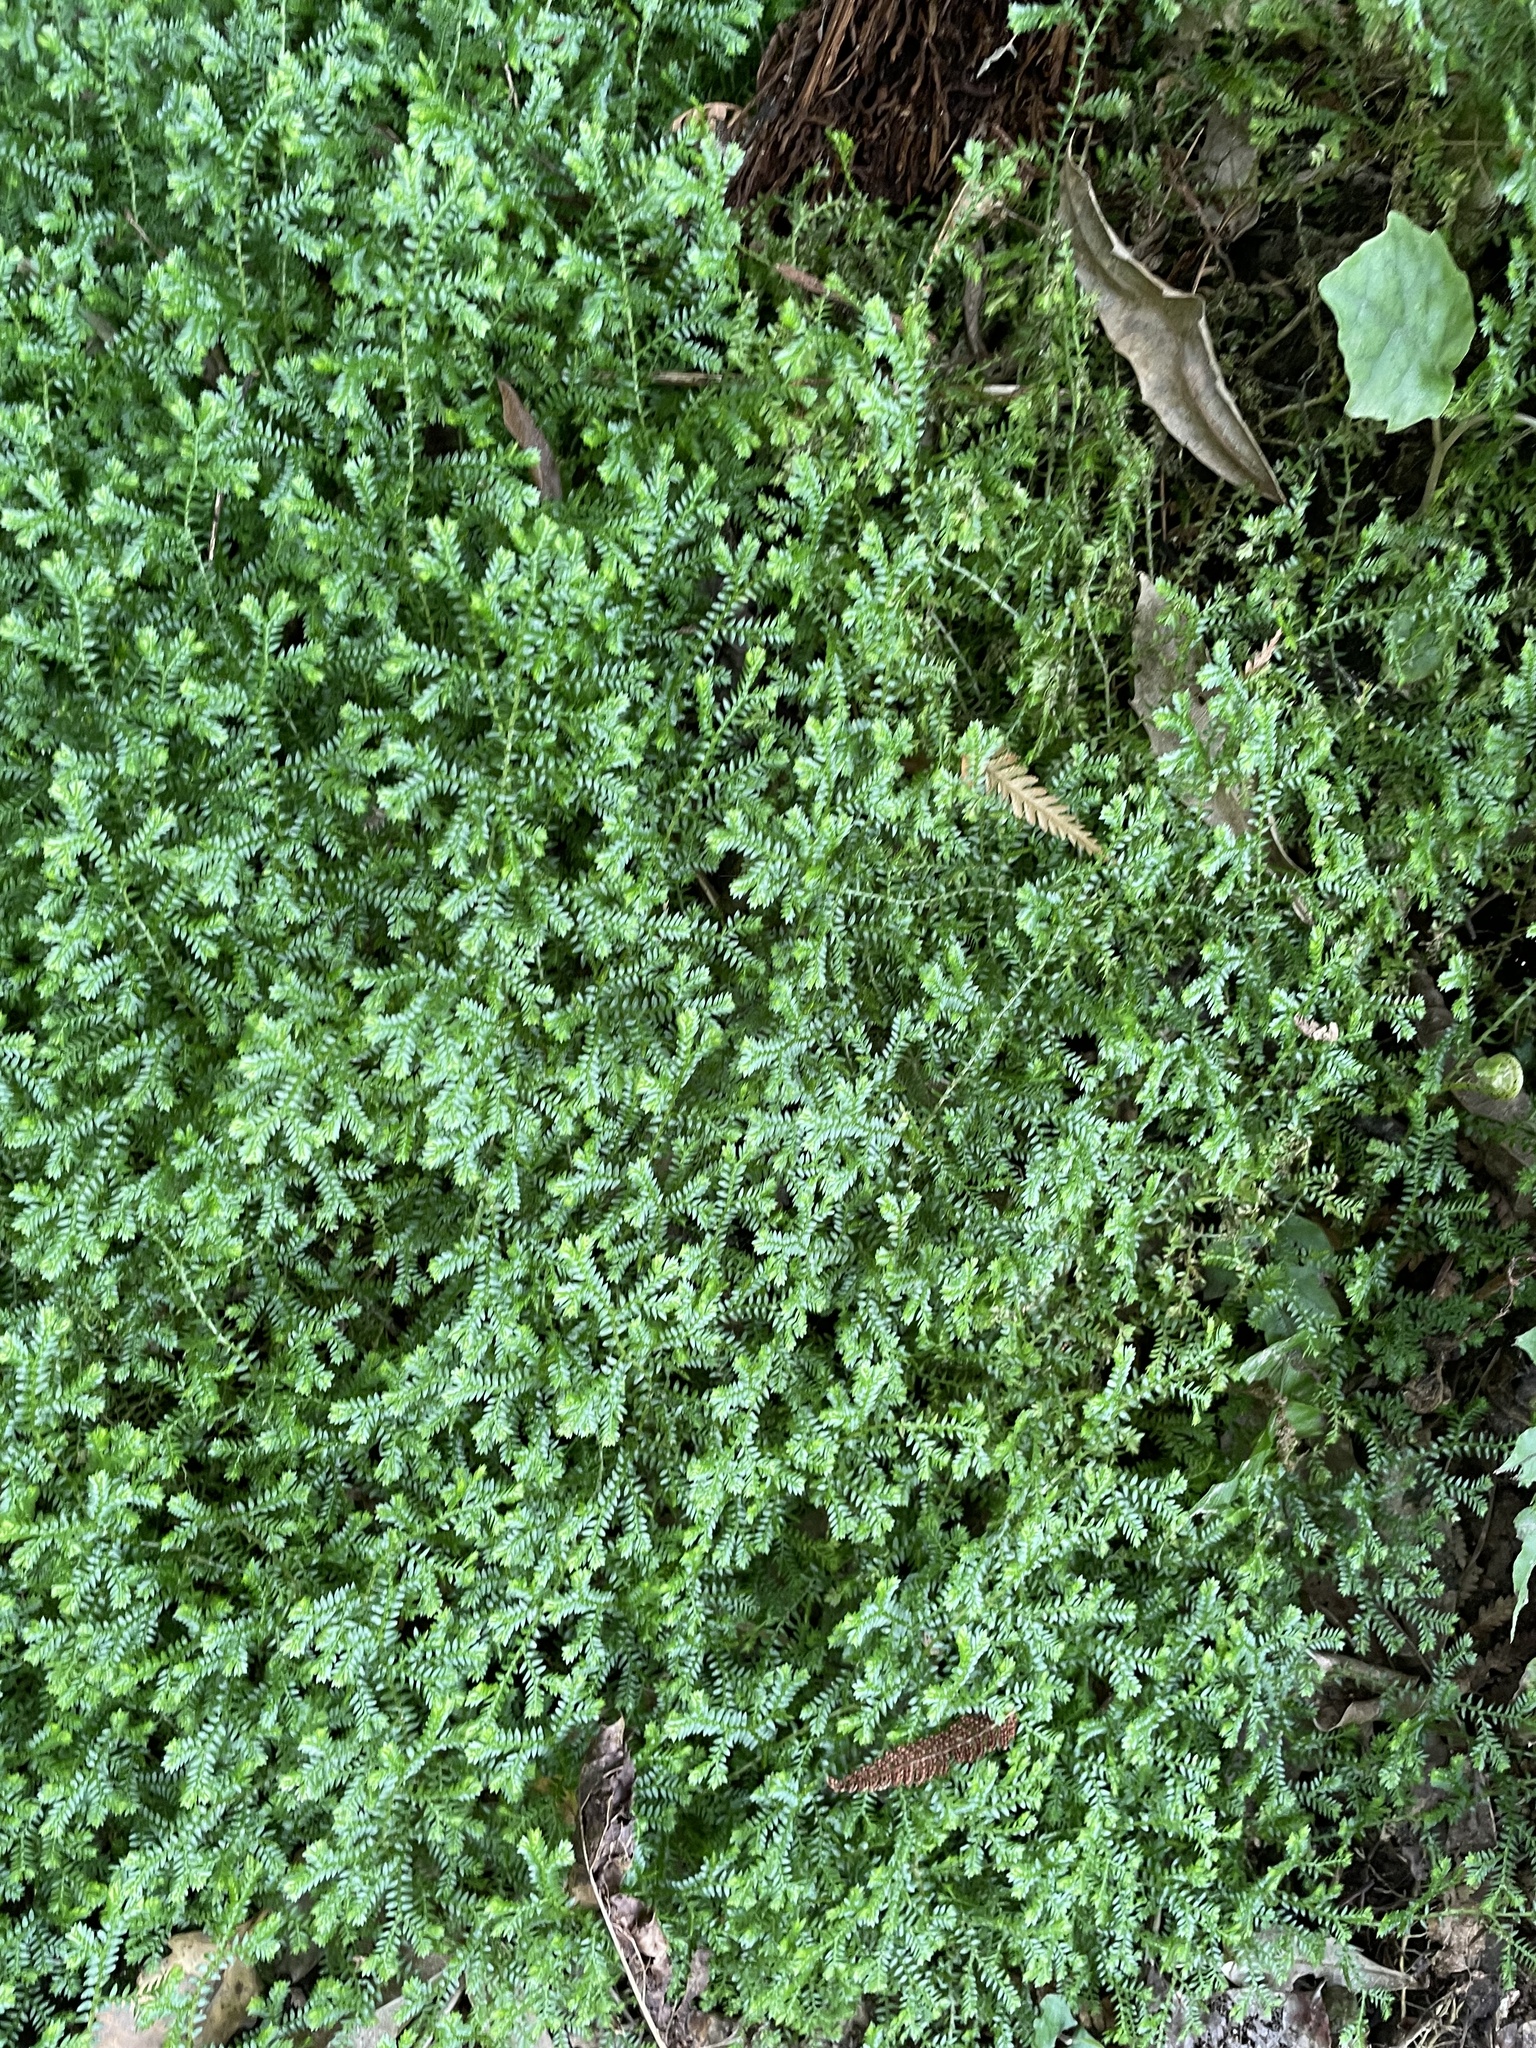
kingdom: Plantae
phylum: Tracheophyta
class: Lycopodiopsida
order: Selaginellales
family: Selaginellaceae
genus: Selaginella
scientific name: Selaginella kraussiana
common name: Krauss' spikemoss
